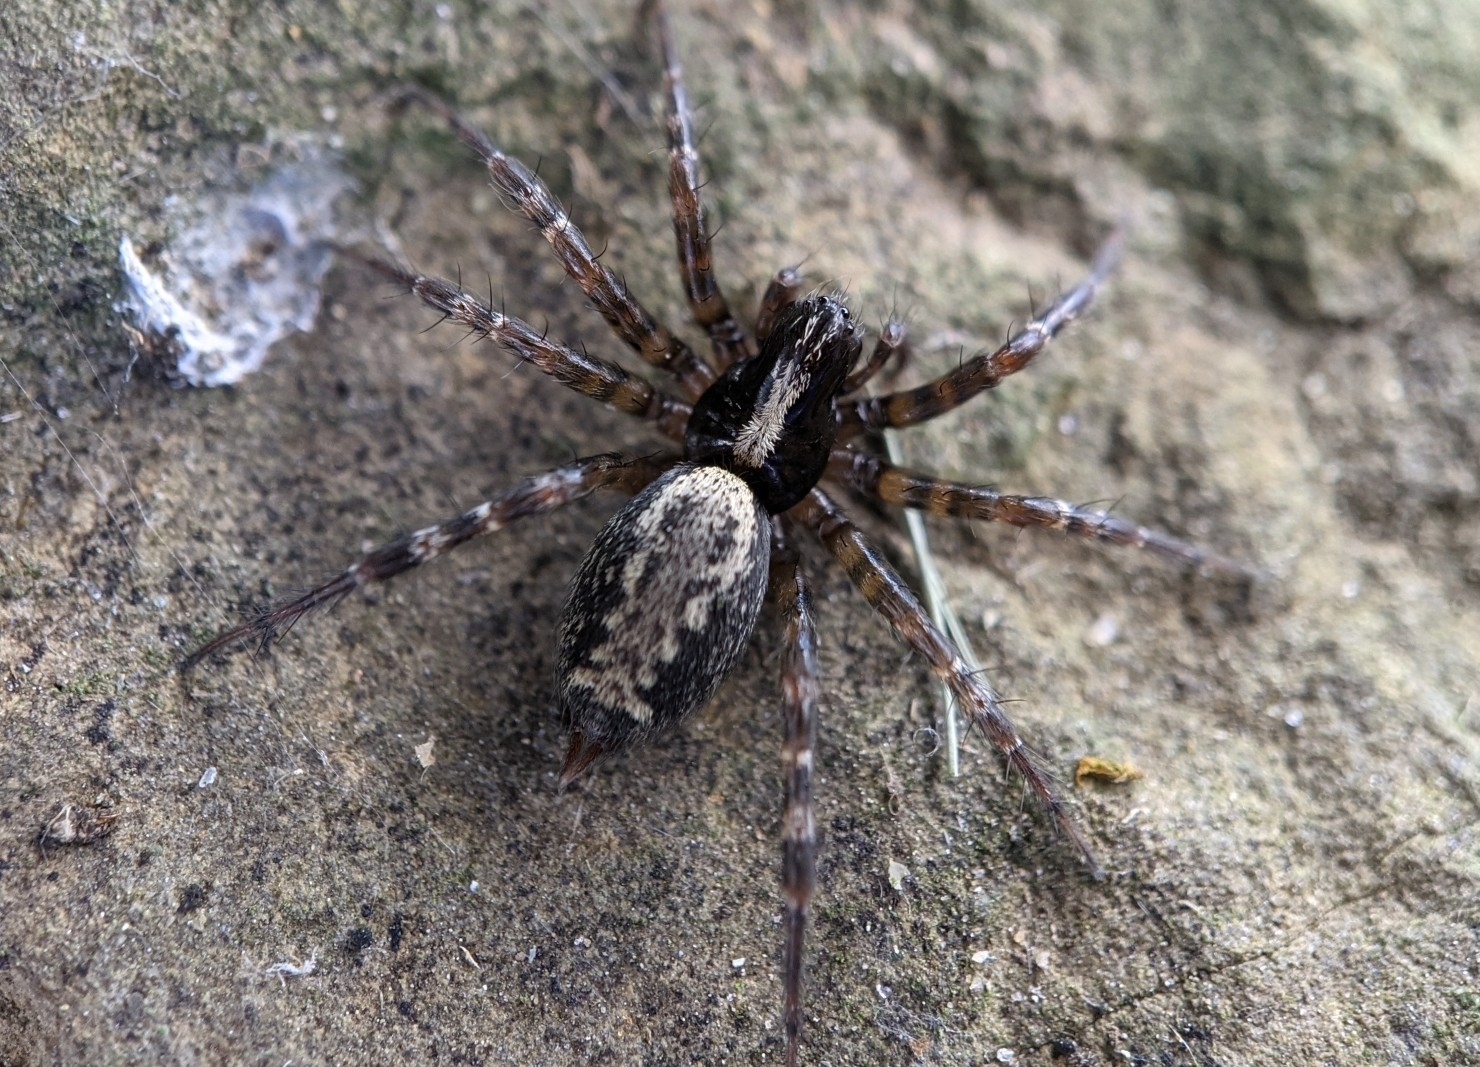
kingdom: Animalia
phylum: Arthropoda
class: Arachnida
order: Araneae
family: Agelenidae
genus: Textrix
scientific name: Textrix denticulata
